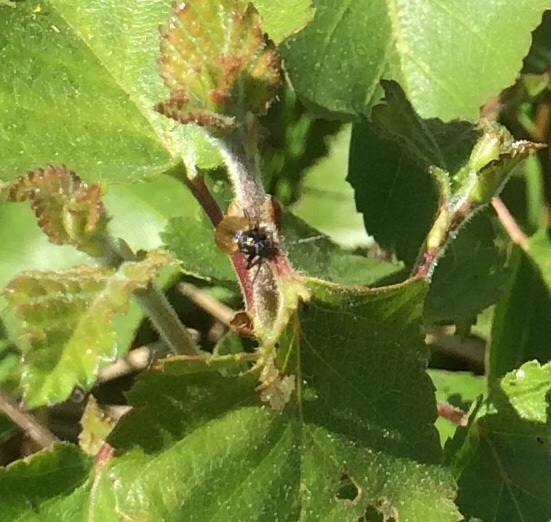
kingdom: Animalia
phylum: Arthropoda
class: Insecta
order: Coleoptera
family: Chrysomelidae
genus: Lochmaea
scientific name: Lochmaea caprea
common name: Willow leaf beetle
